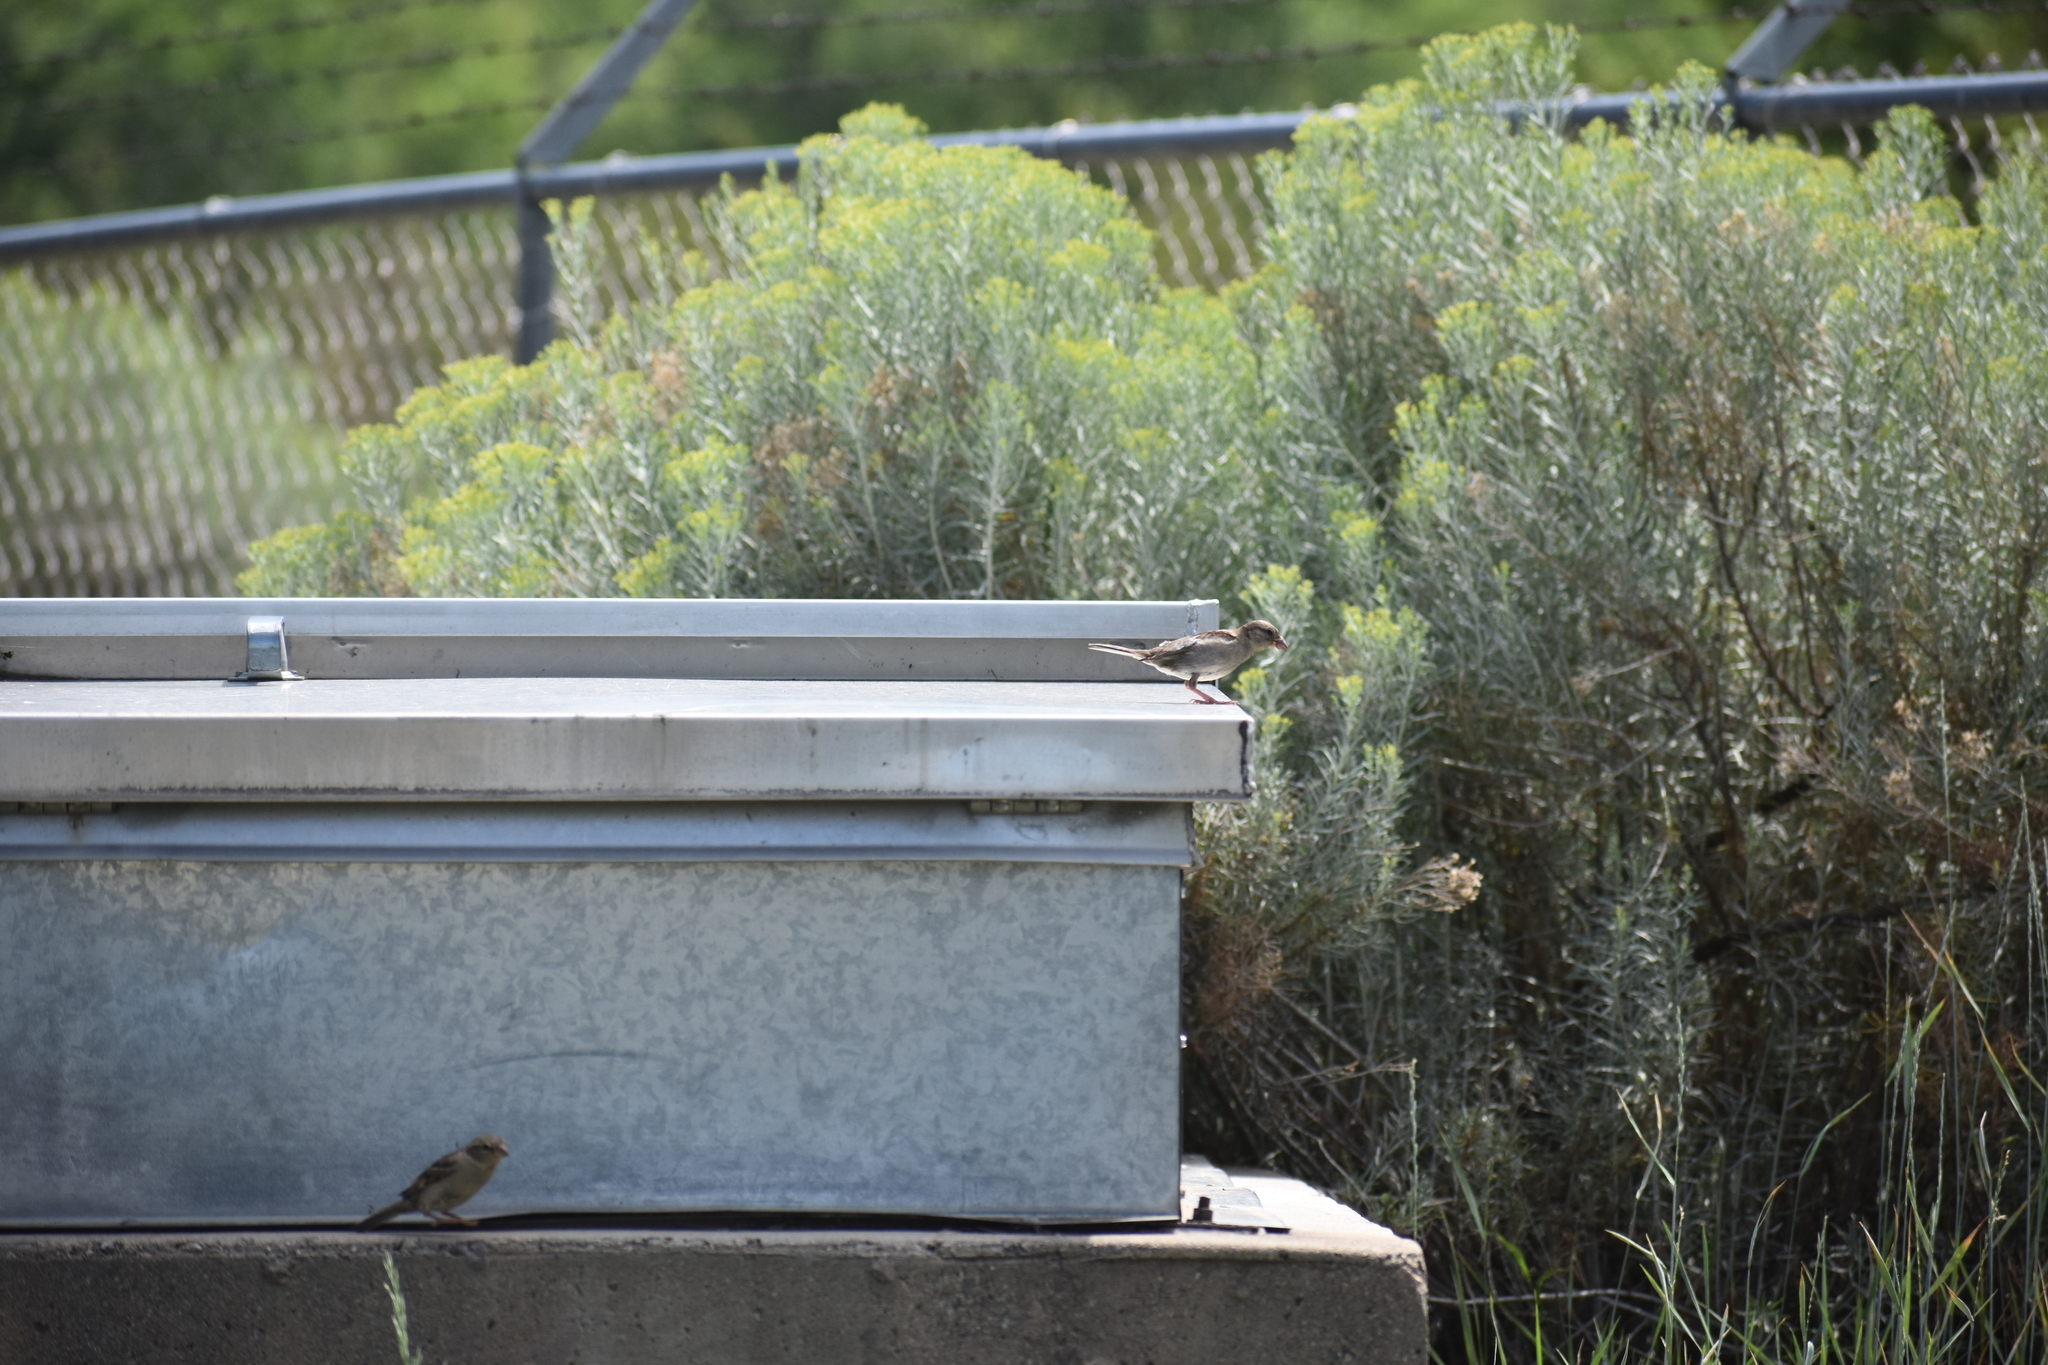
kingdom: Animalia
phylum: Chordata
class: Aves
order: Passeriformes
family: Passeridae
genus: Passer
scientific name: Passer domesticus
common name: House sparrow
